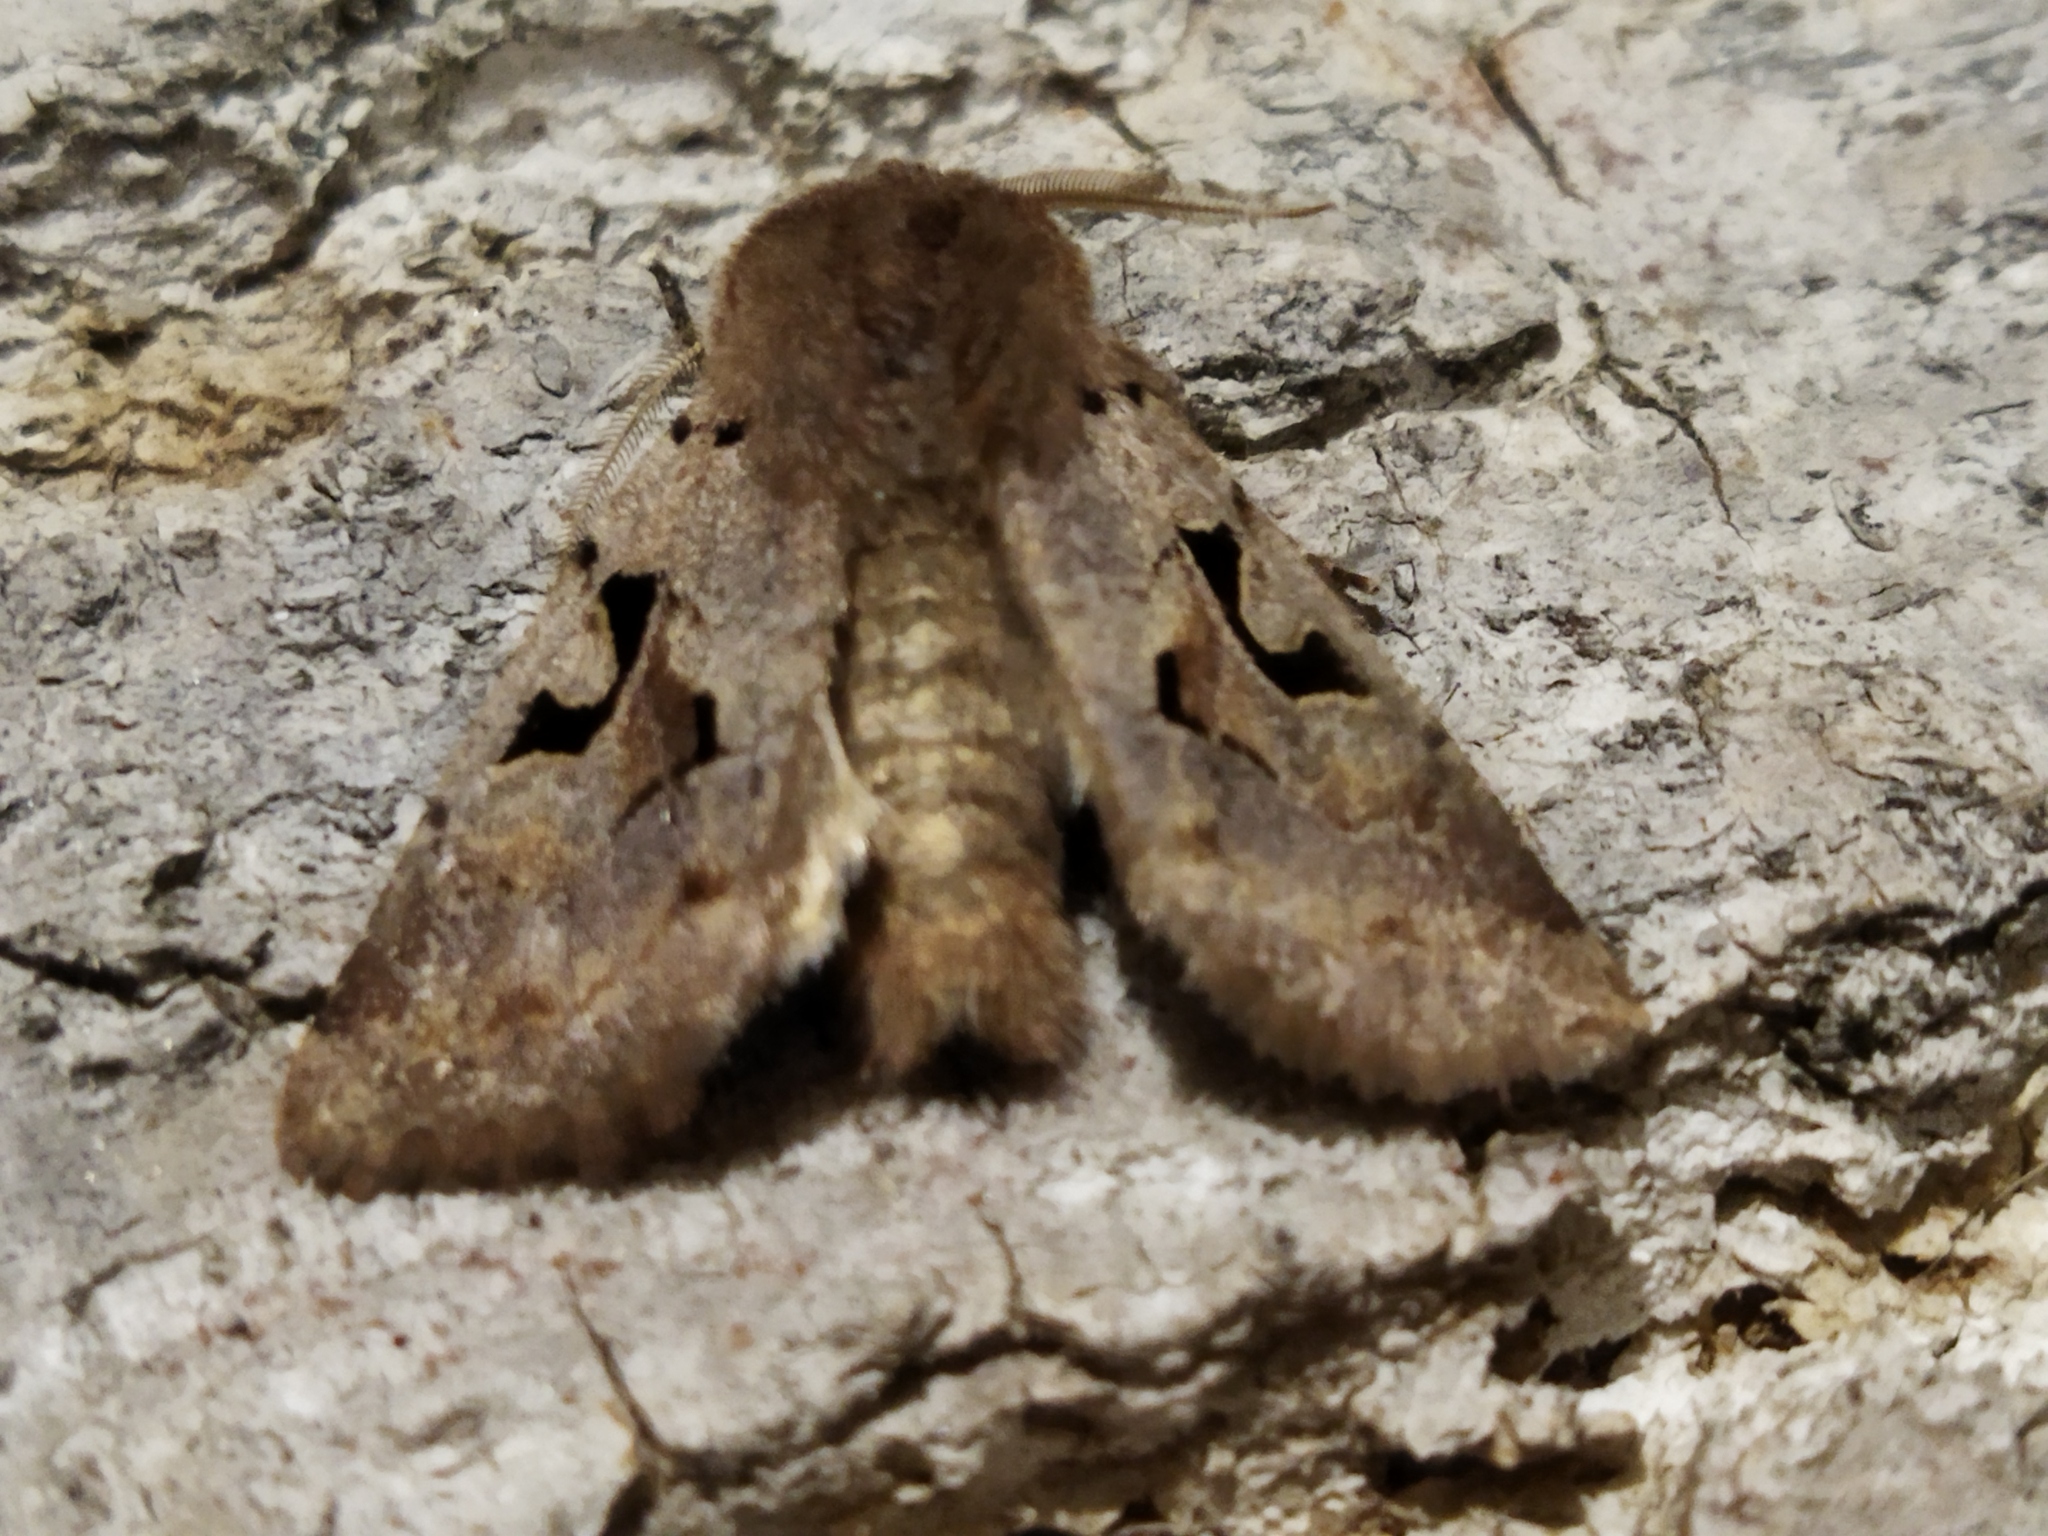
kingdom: Animalia
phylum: Arthropoda
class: Insecta
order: Lepidoptera
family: Noctuidae
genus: Orthosia
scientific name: Orthosia gothica
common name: Hebrew character
